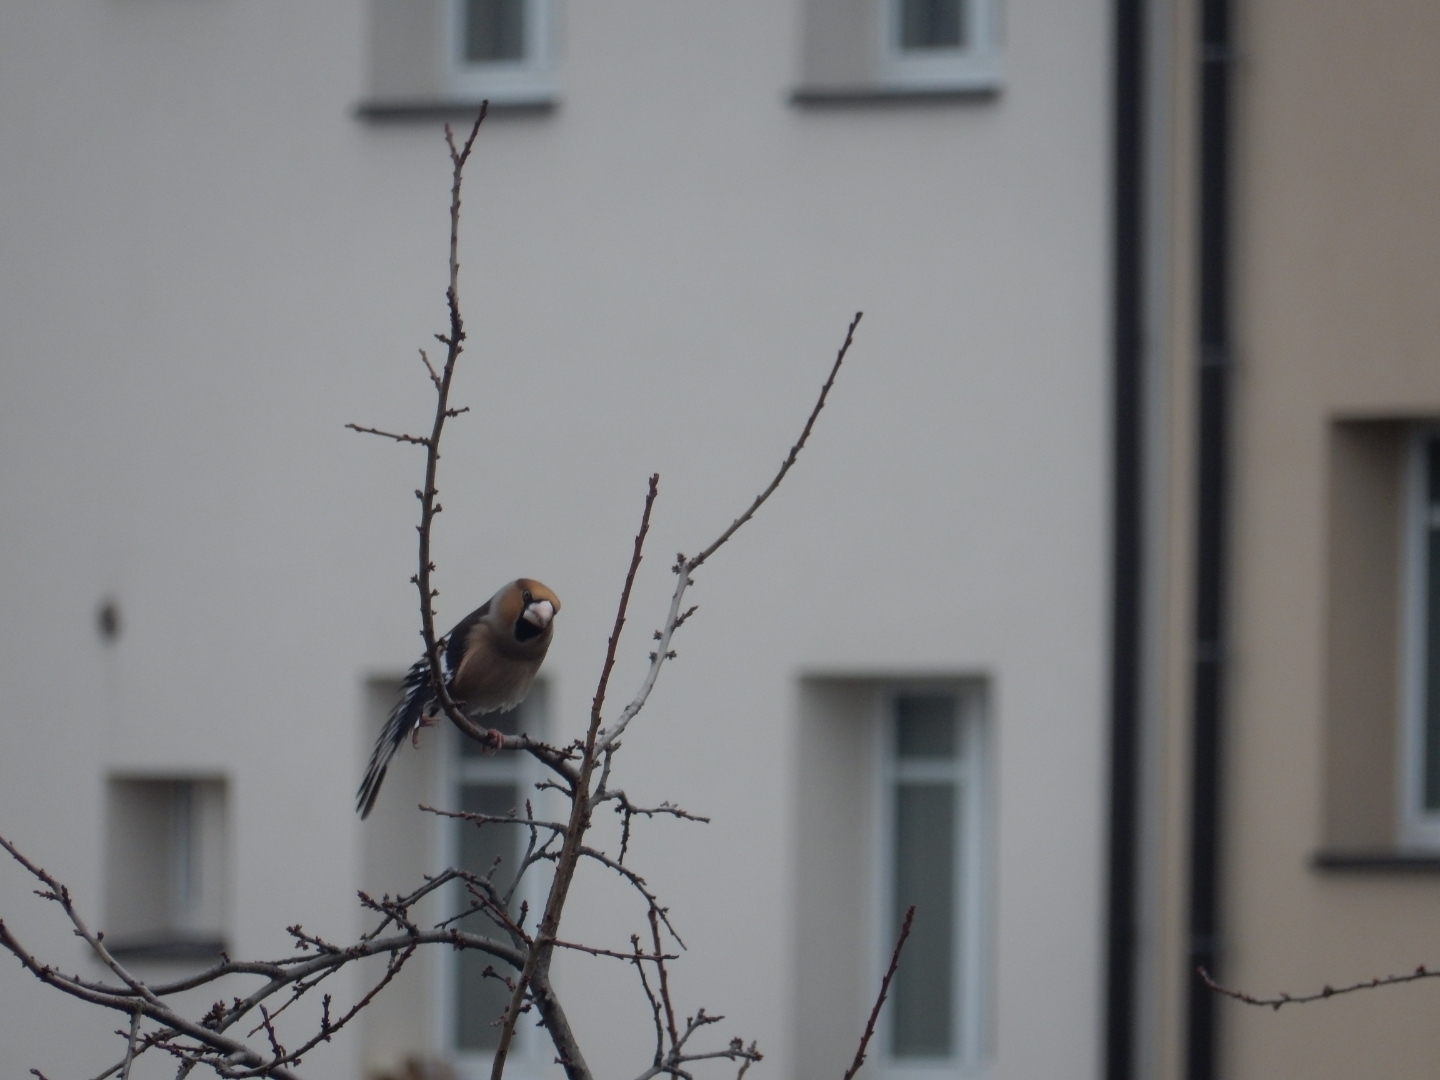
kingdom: Animalia
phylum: Chordata
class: Aves
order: Passeriformes
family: Fringillidae
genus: Coccothraustes
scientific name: Coccothraustes coccothraustes
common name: Hawfinch
